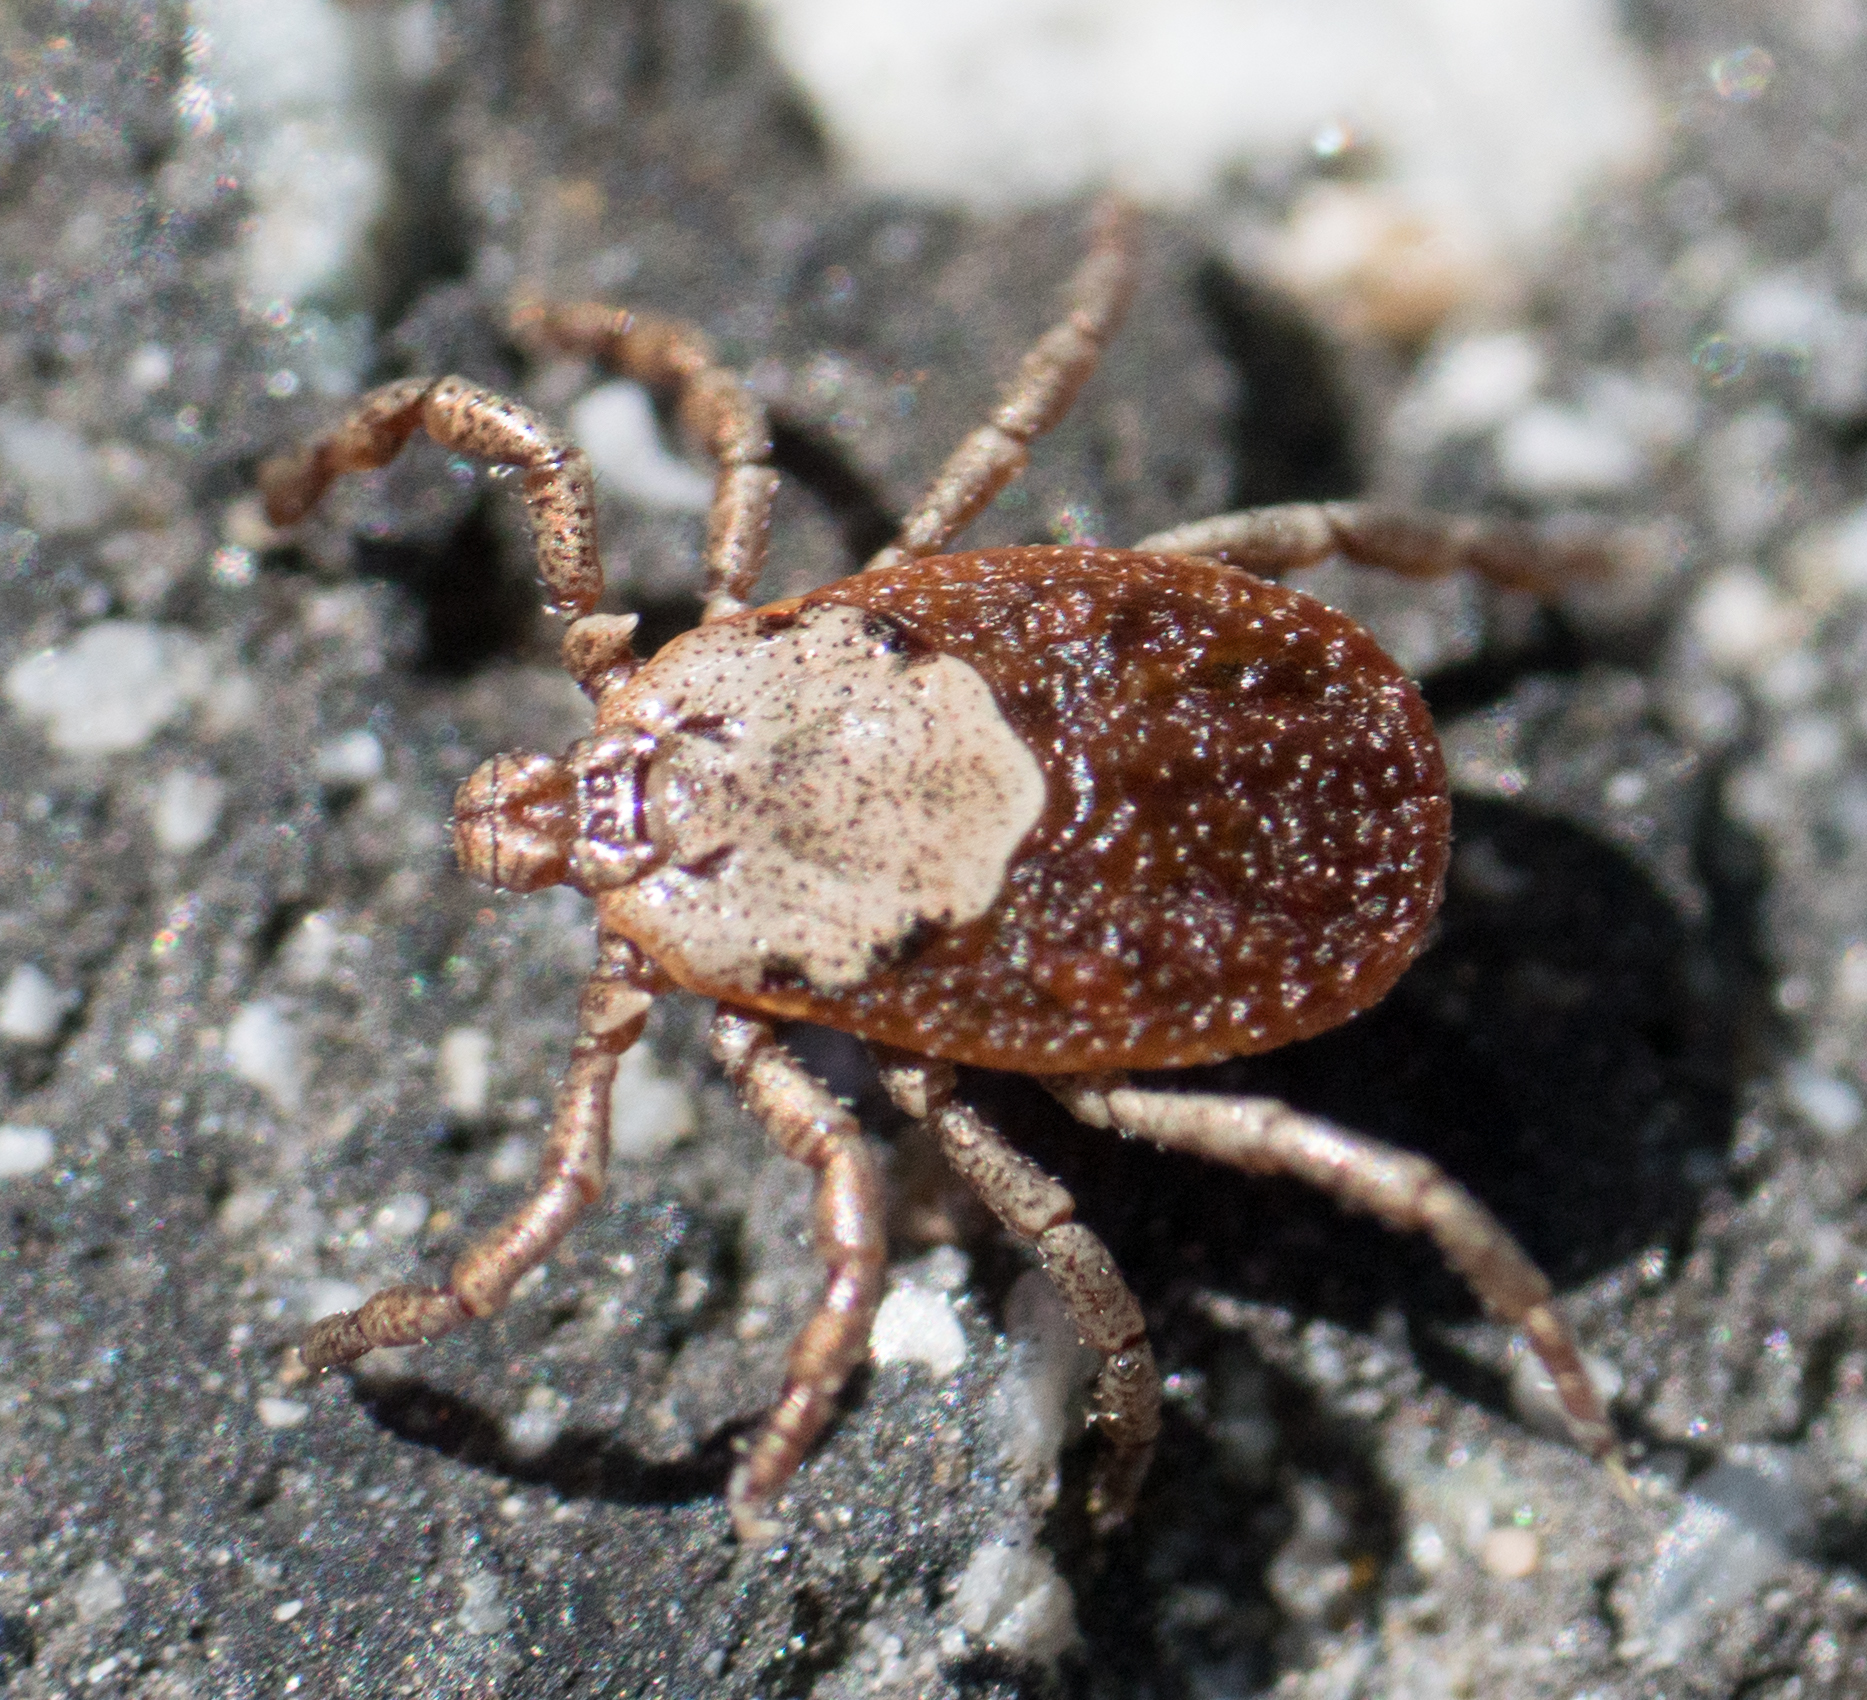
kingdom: Animalia
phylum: Arthropoda
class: Arachnida
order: Ixodida
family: Ixodidae
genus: Dermacentor
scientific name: Dermacentor occidentalis
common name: Net tick
